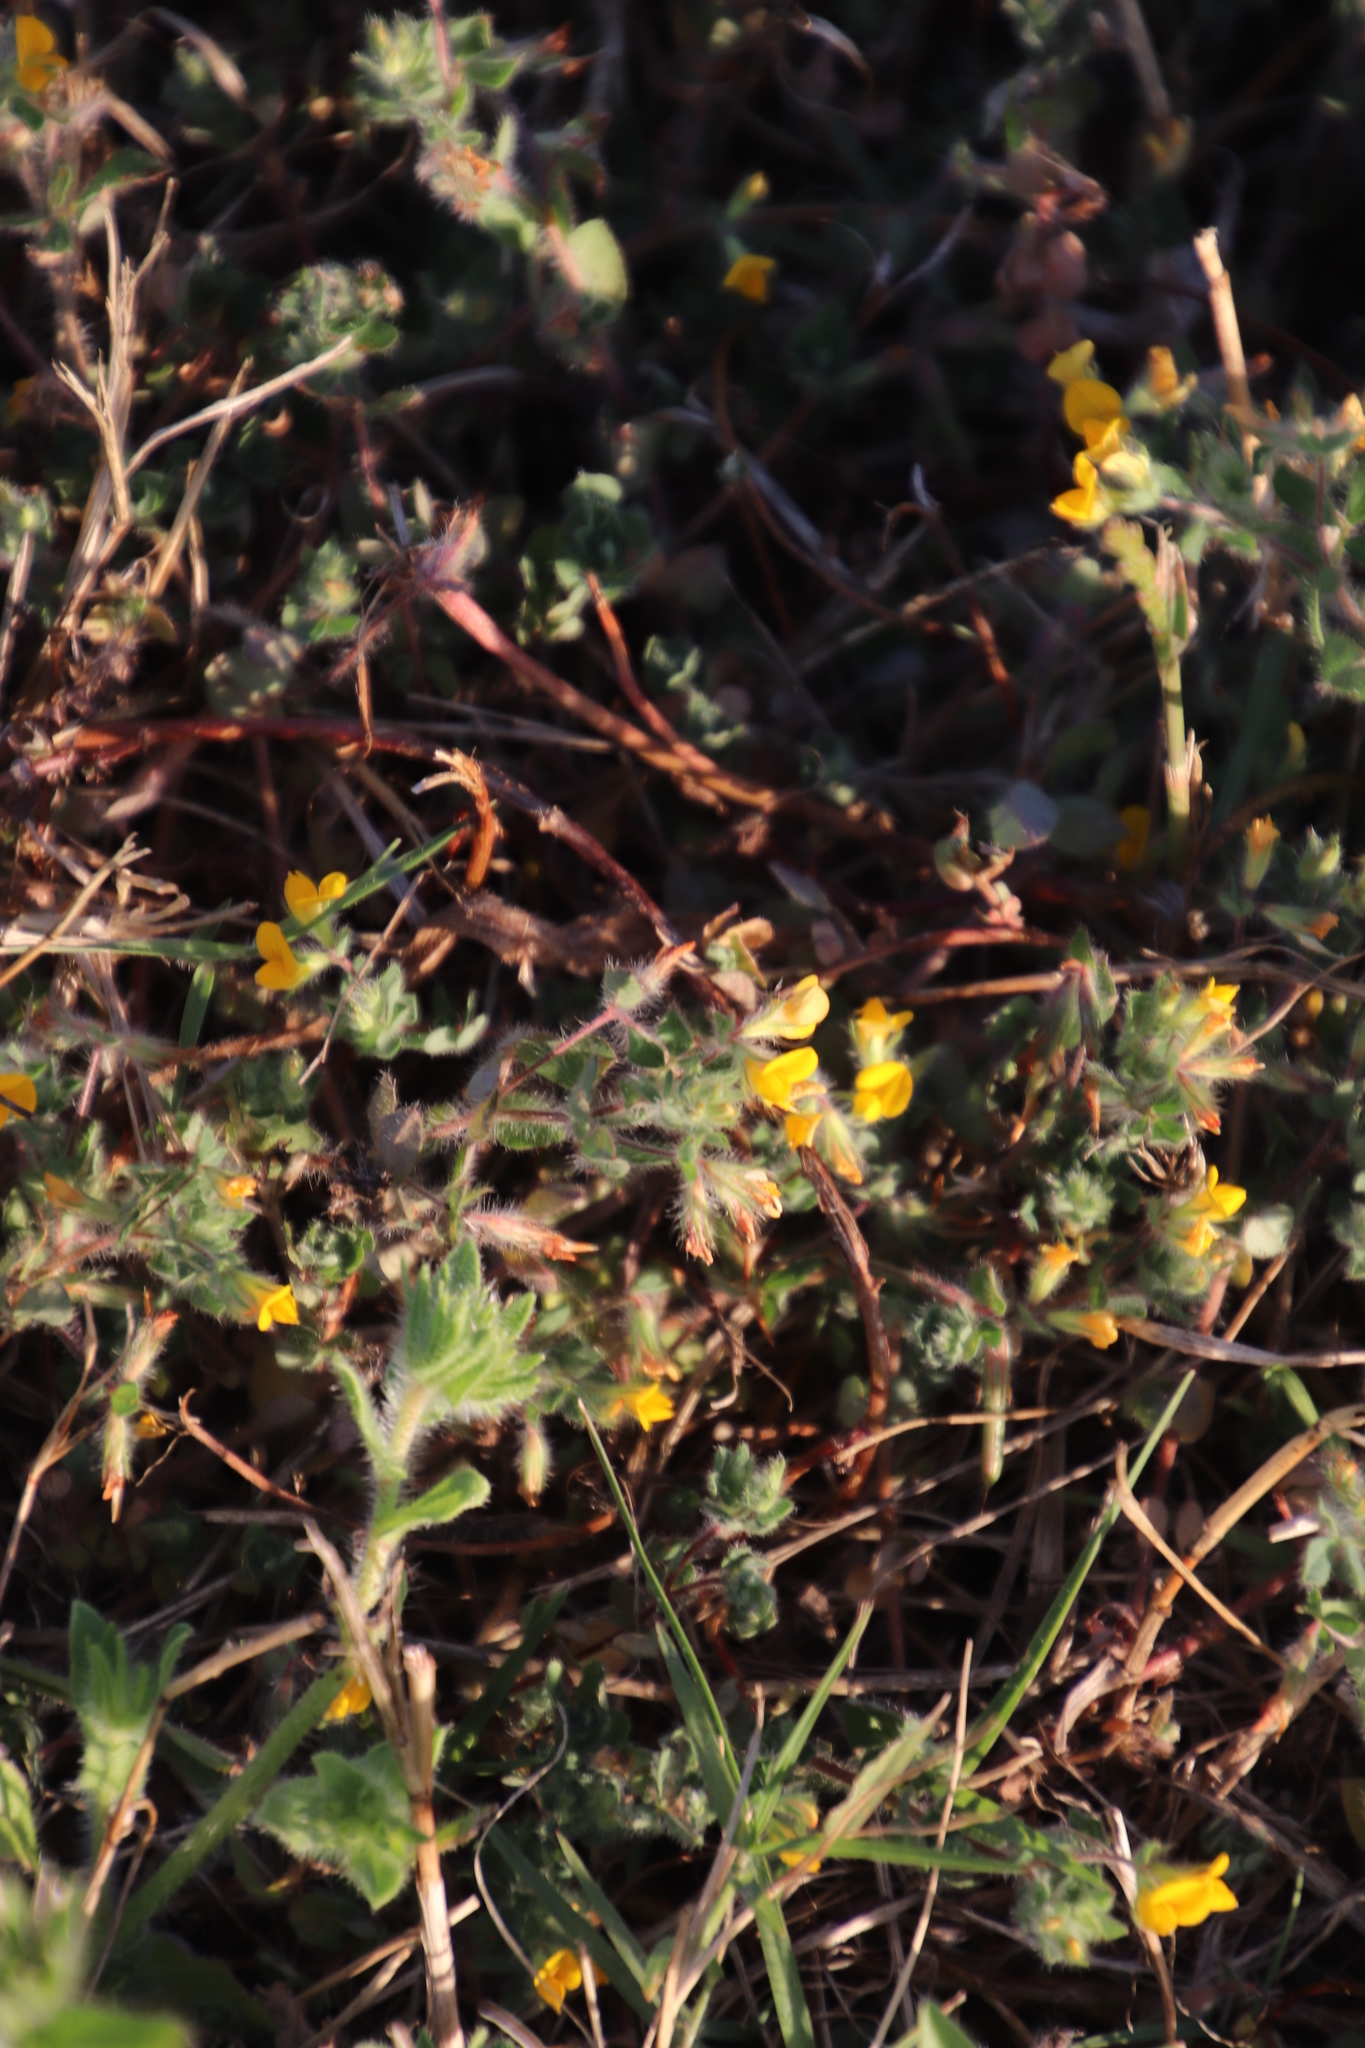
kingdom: Plantae
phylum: Tracheophyta
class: Magnoliopsida
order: Fabales
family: Fabaceae
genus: Lotus
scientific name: Lotus subbiflorus
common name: Hairy bird's-foot trefoil
